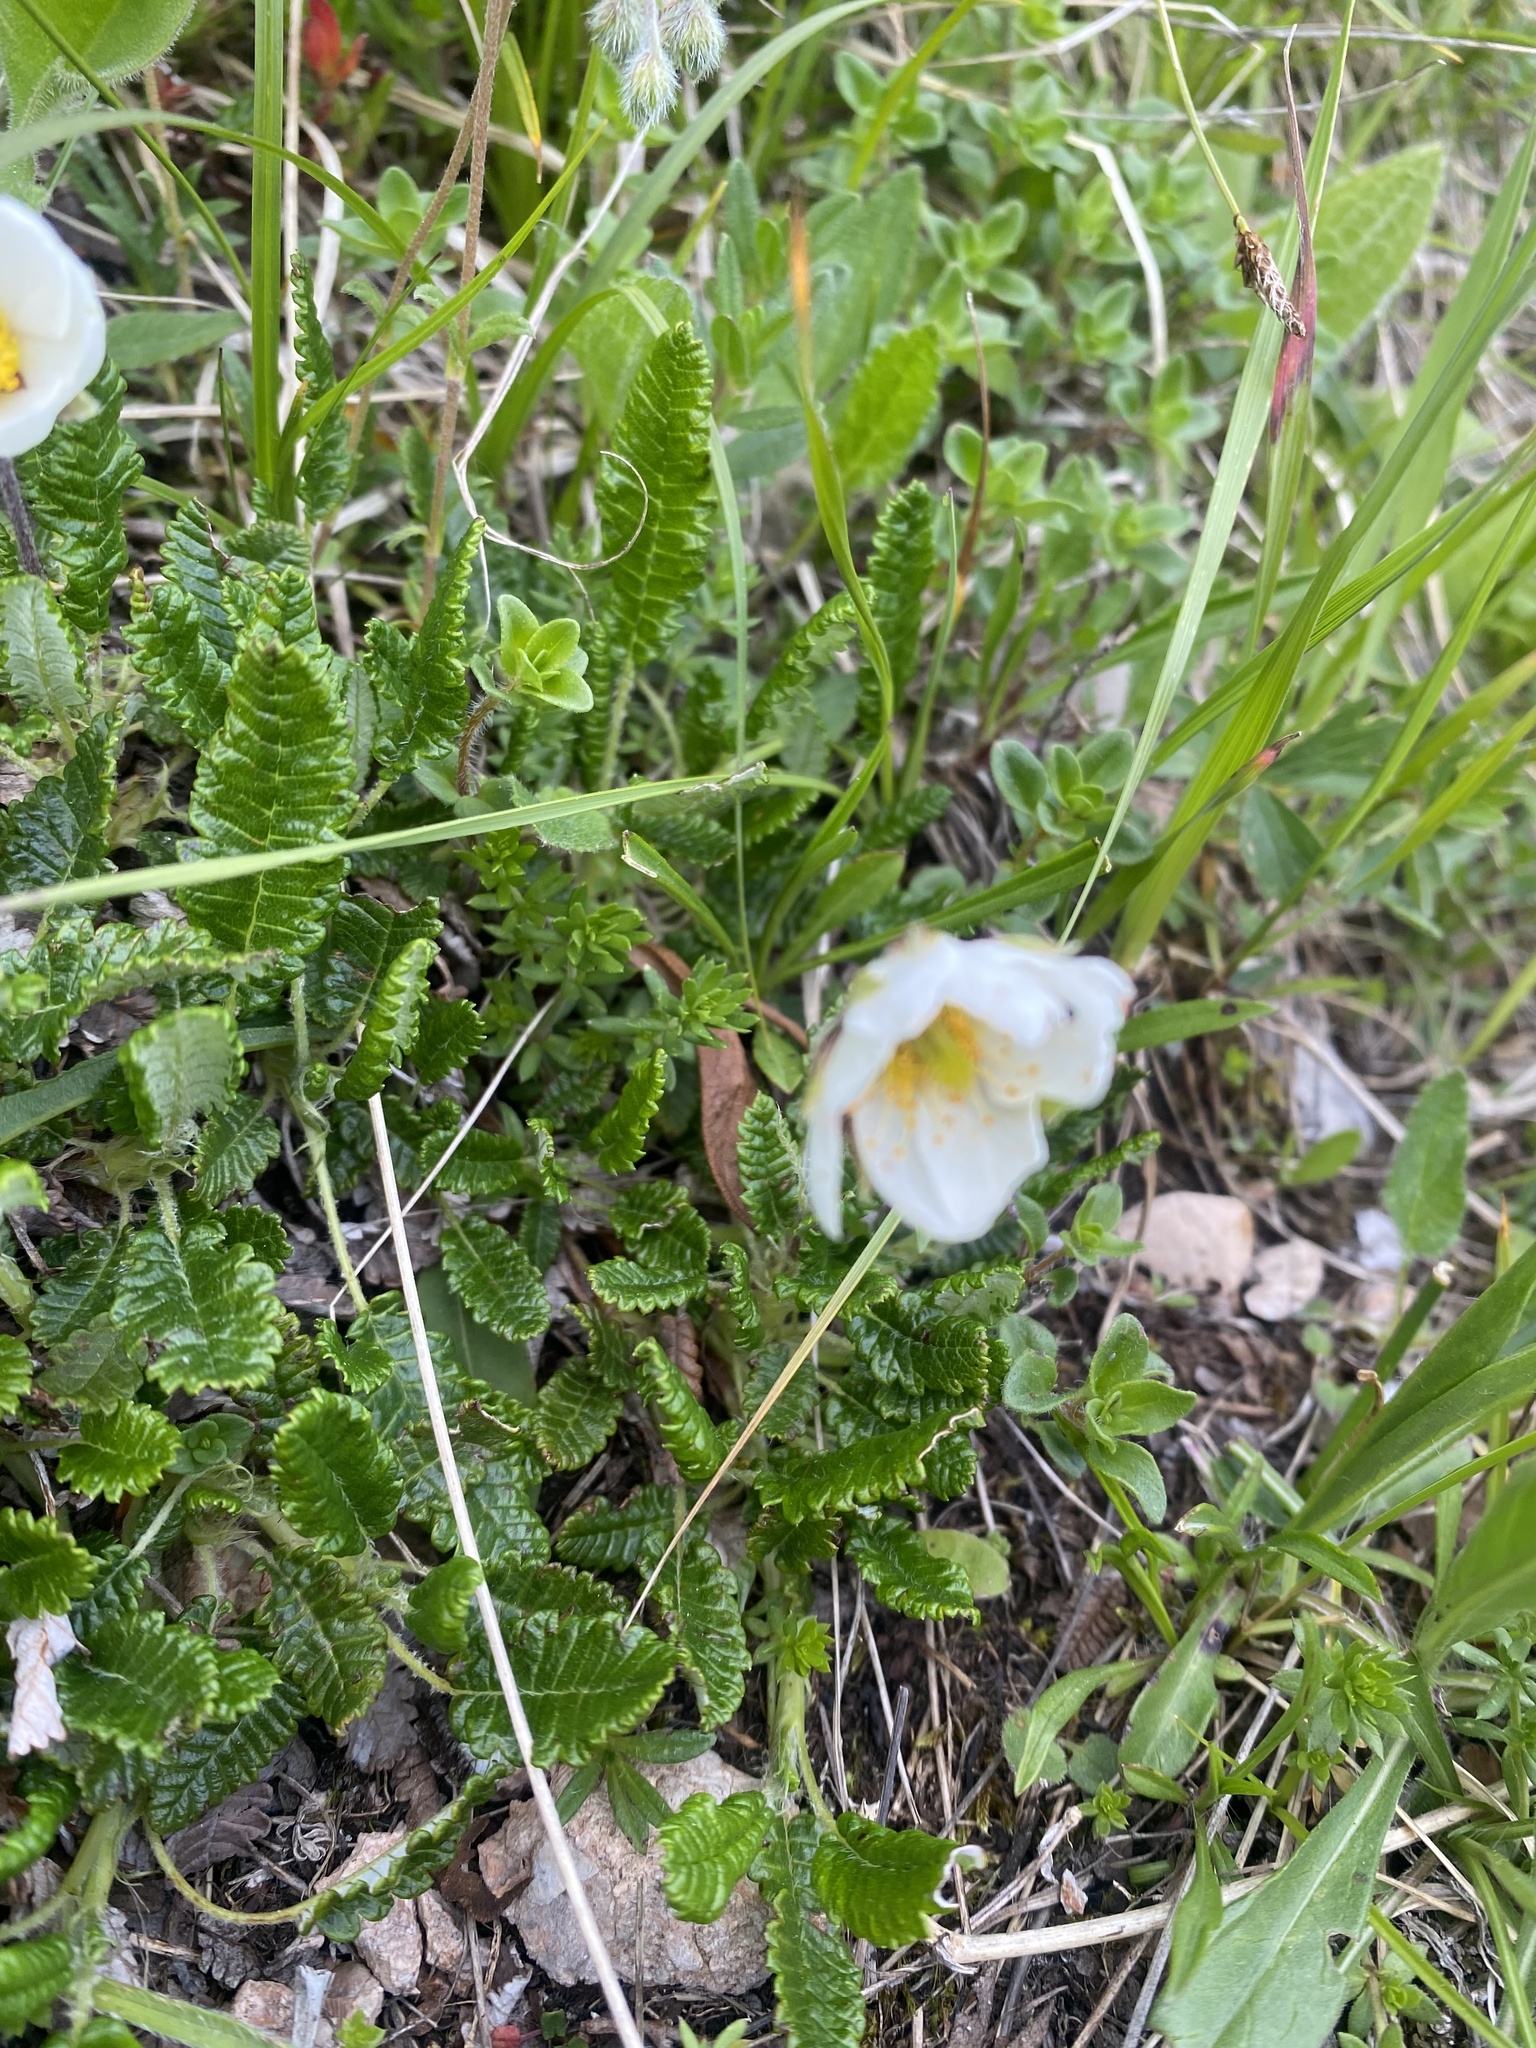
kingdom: Plantae
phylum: Tracheophyta
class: Magnoliopsida
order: Rosales
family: Rosaceae
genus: Dryas
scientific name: Dryas octopetala
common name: Eight-petal mountain-avens
